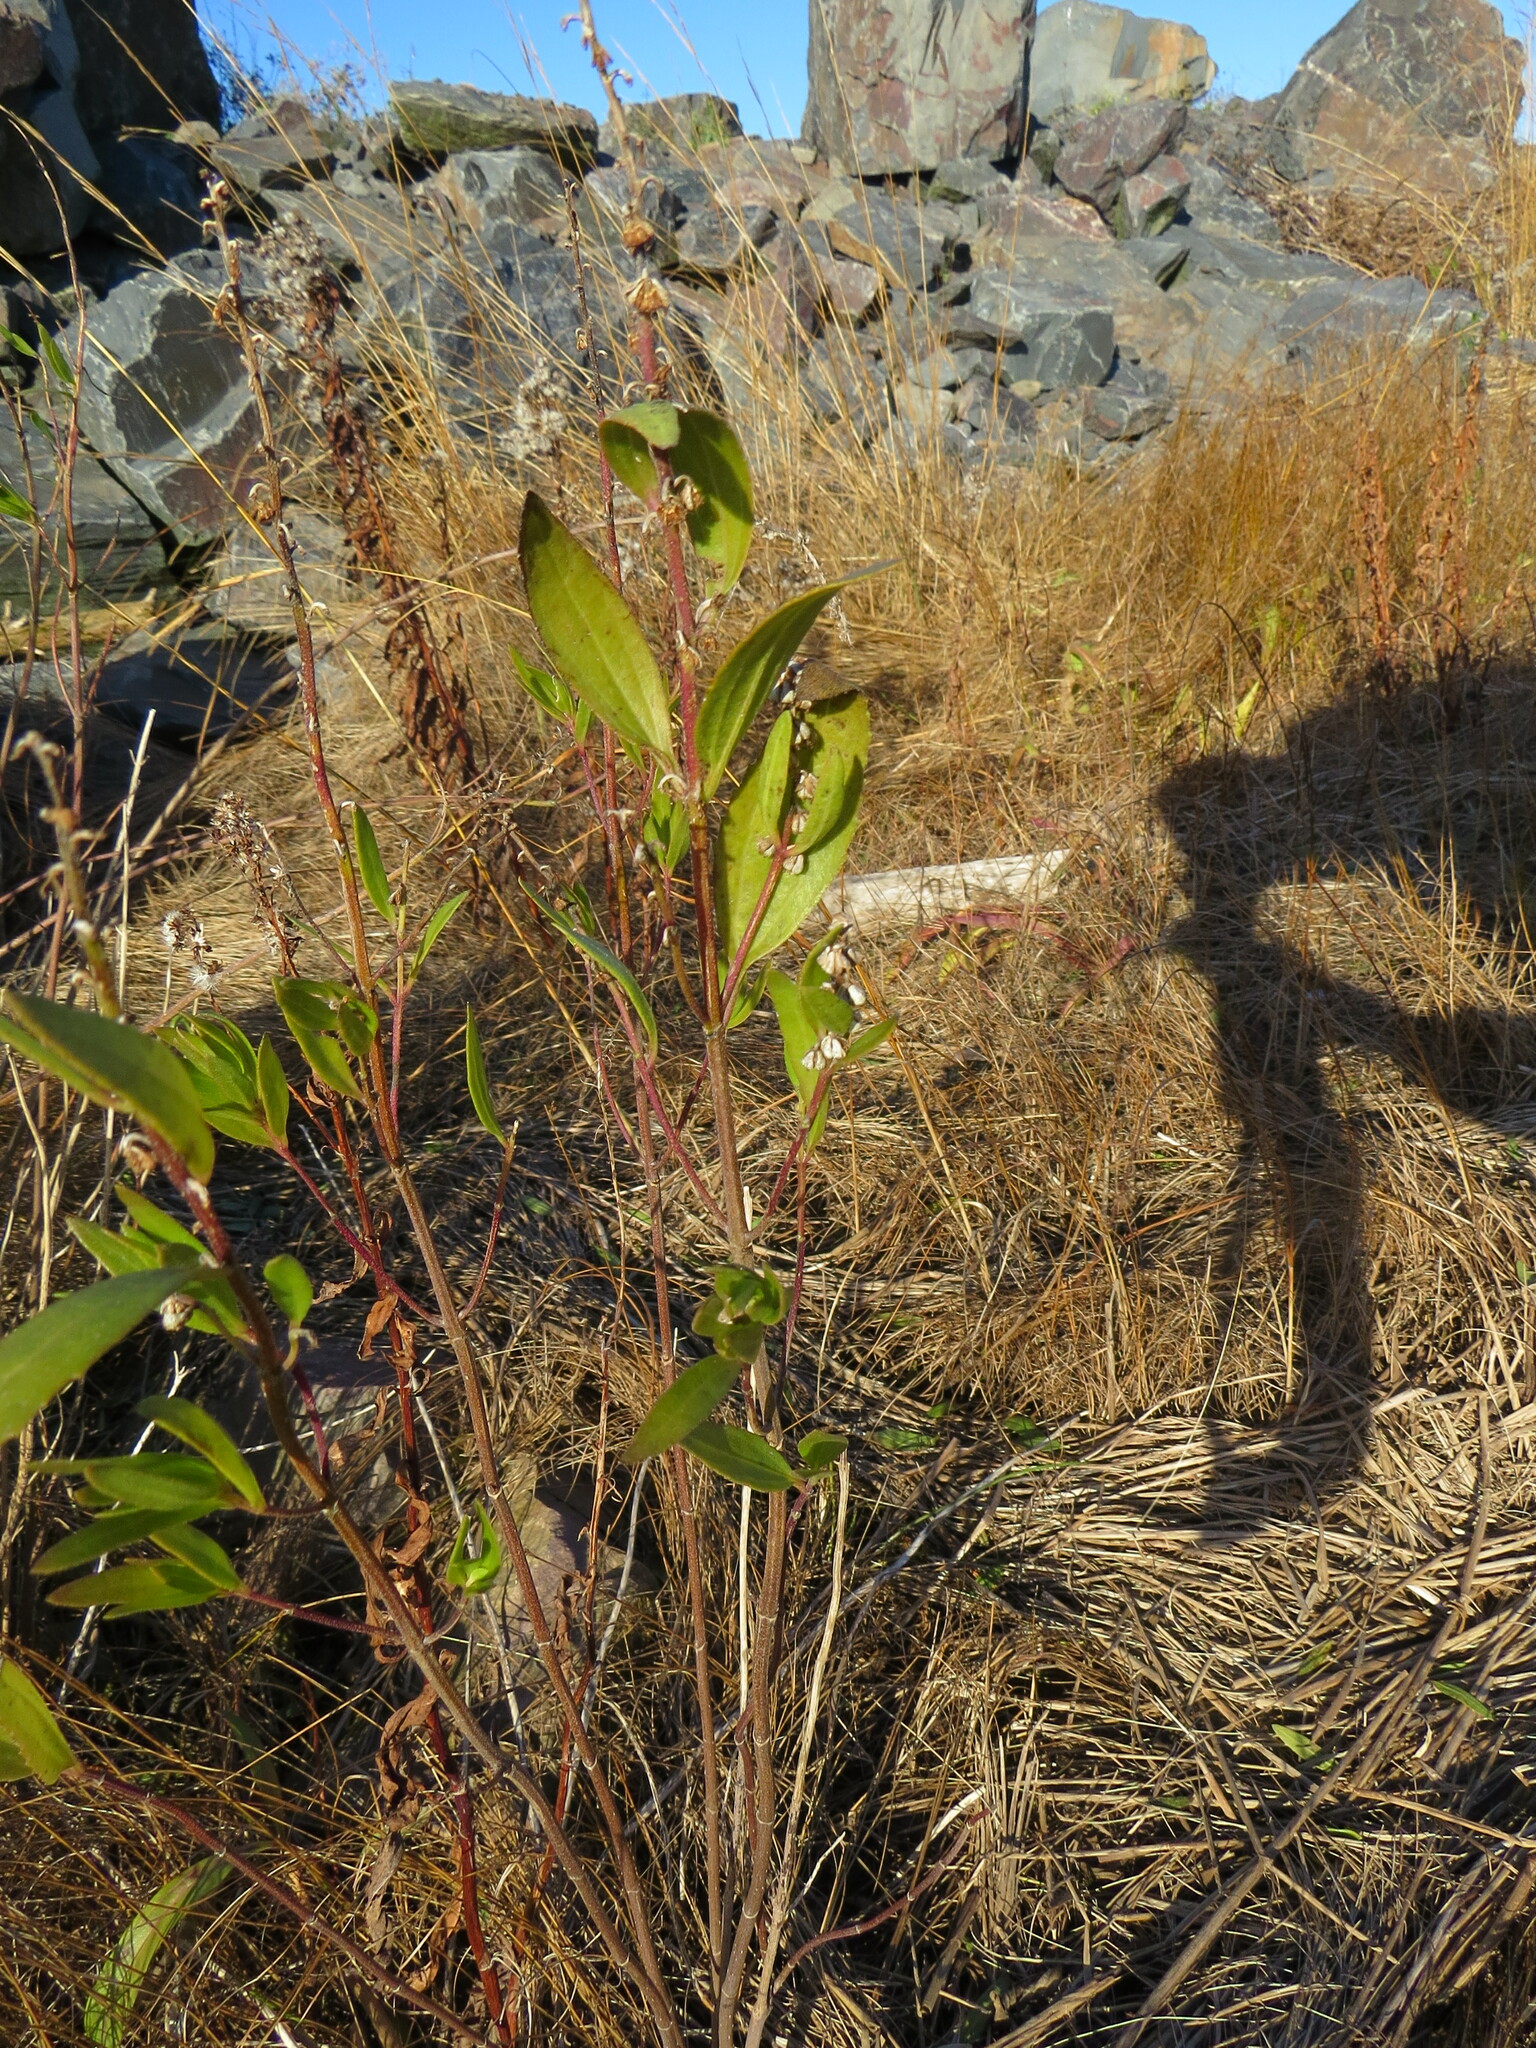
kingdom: Plantae
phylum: Tracheophyta
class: Magnoliopsida
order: Asterales
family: Asteraceae
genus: Iva
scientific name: Iva frutescens
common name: Big-leaved marsh-elder
